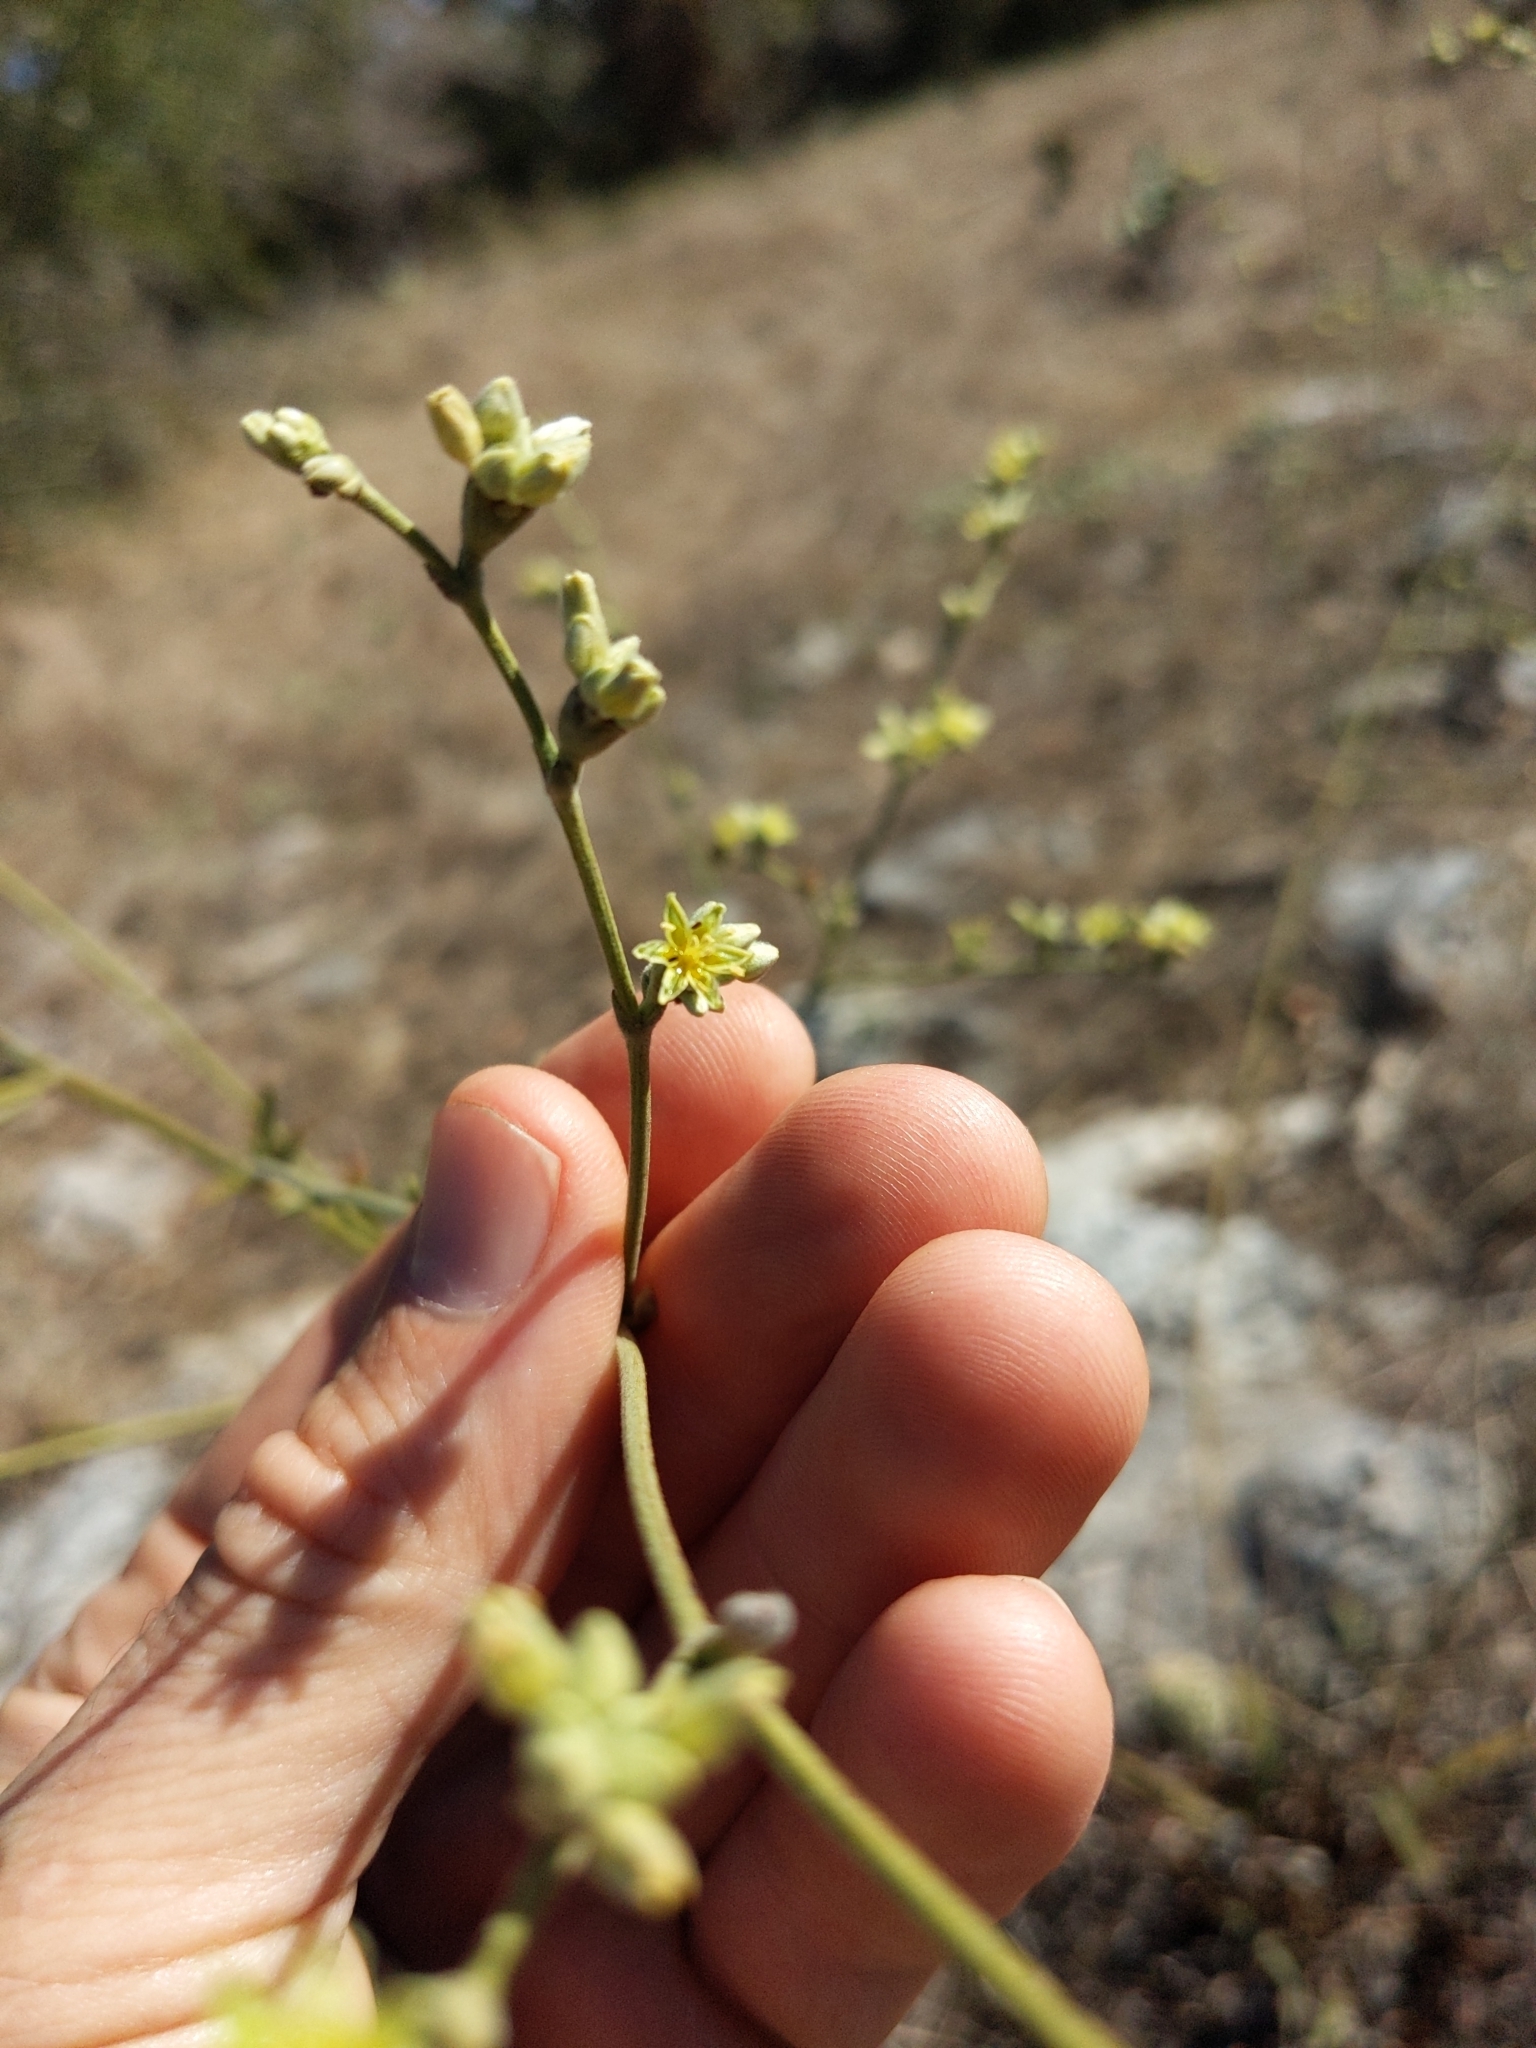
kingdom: Plantae
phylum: Tracheophyta
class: Magnoliopsida
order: Caryophyllales
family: Polygonaceae
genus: Eriogonum
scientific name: Eriogonum longifolium
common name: Longleaf wild buckwheat
